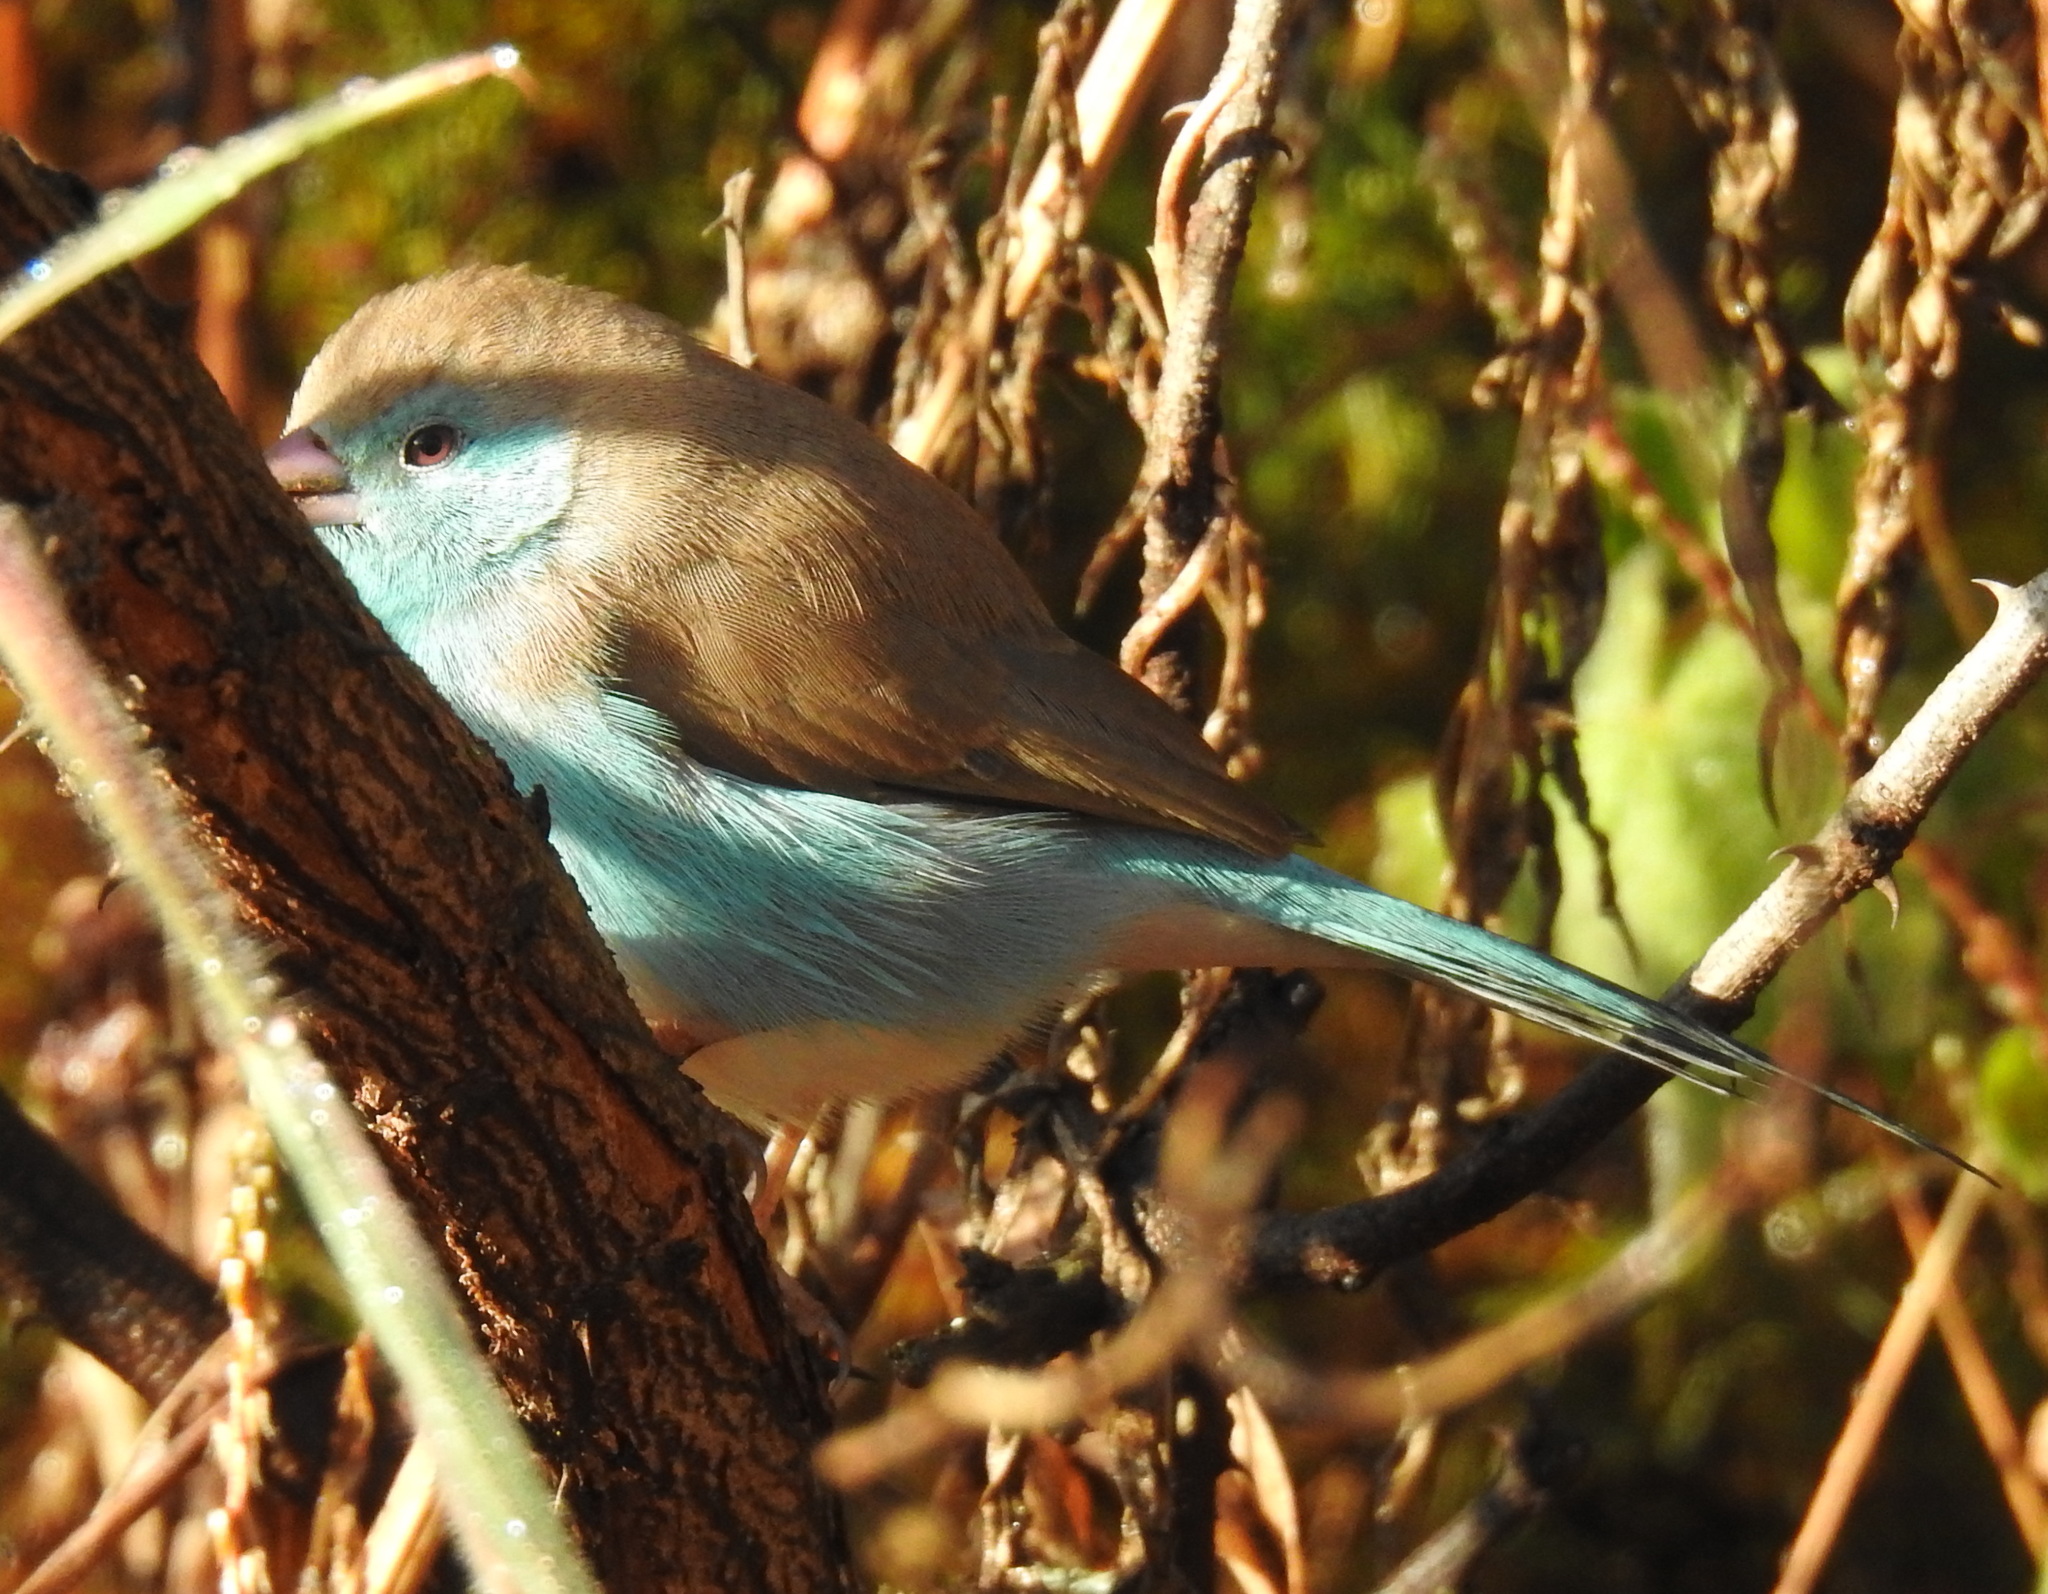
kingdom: Animalia
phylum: Chordata
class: Aves
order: Passeriformes
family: Estrildidae
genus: Uraeginthus
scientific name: Uraeginthus angolensis
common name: Blue waxbill
